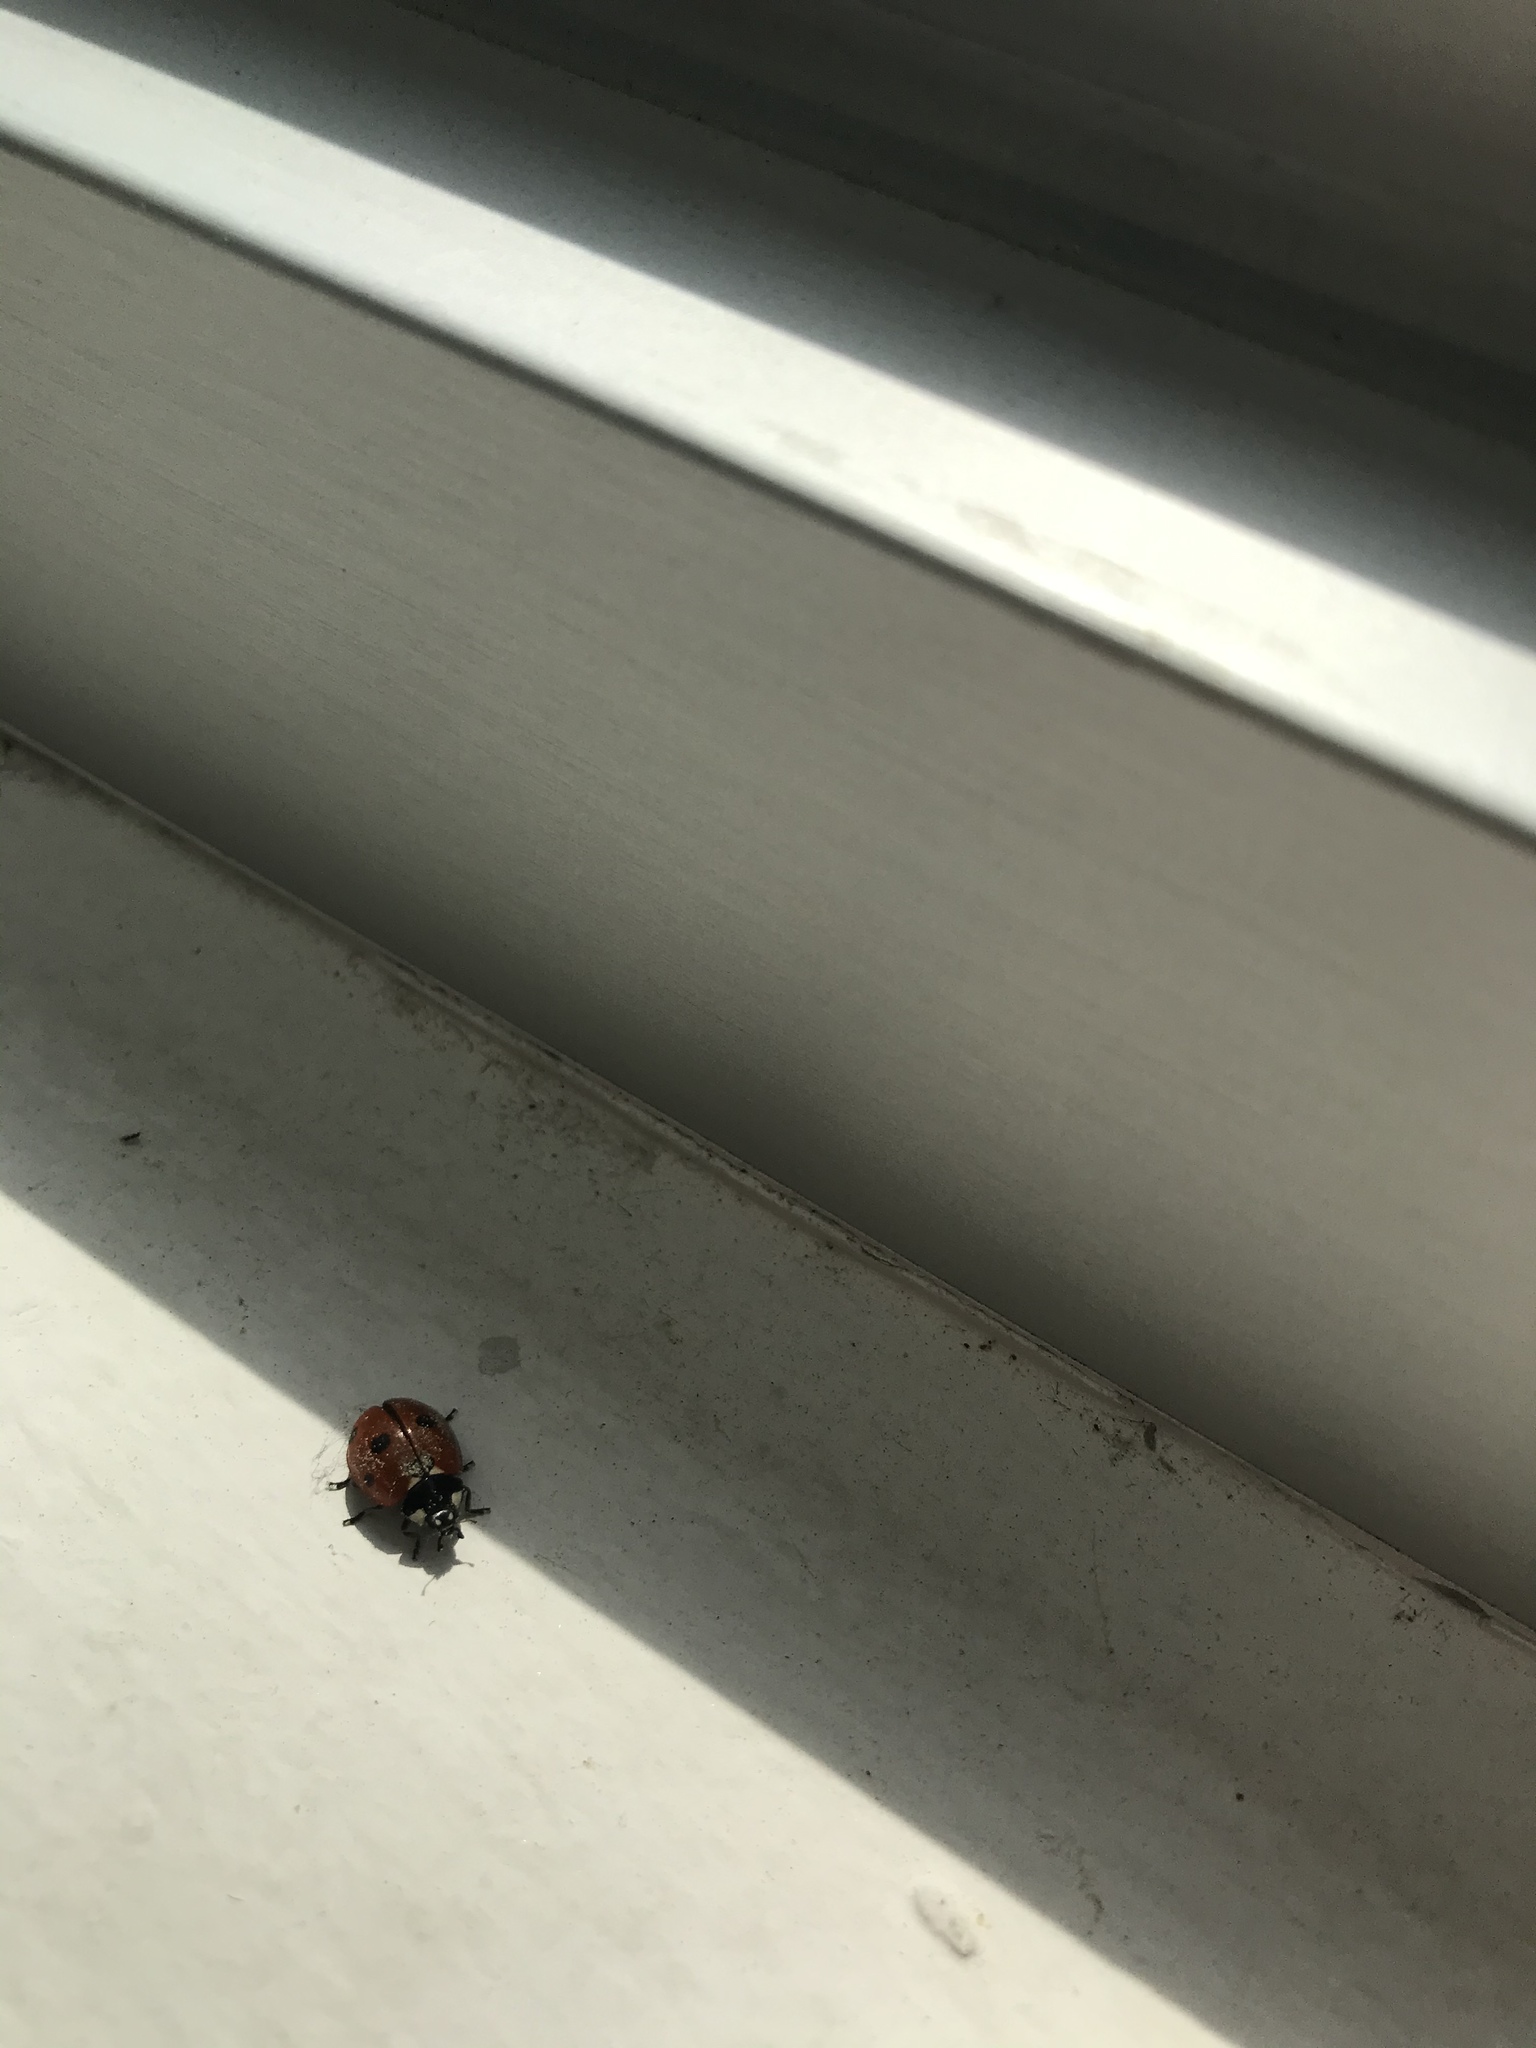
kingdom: Animalia
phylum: Arthropoda
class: Insecta
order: Coleoptera
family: Coccinellidae
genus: Coccinella
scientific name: Coccinella septempunctata
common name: Sevenspotted lady beetle
